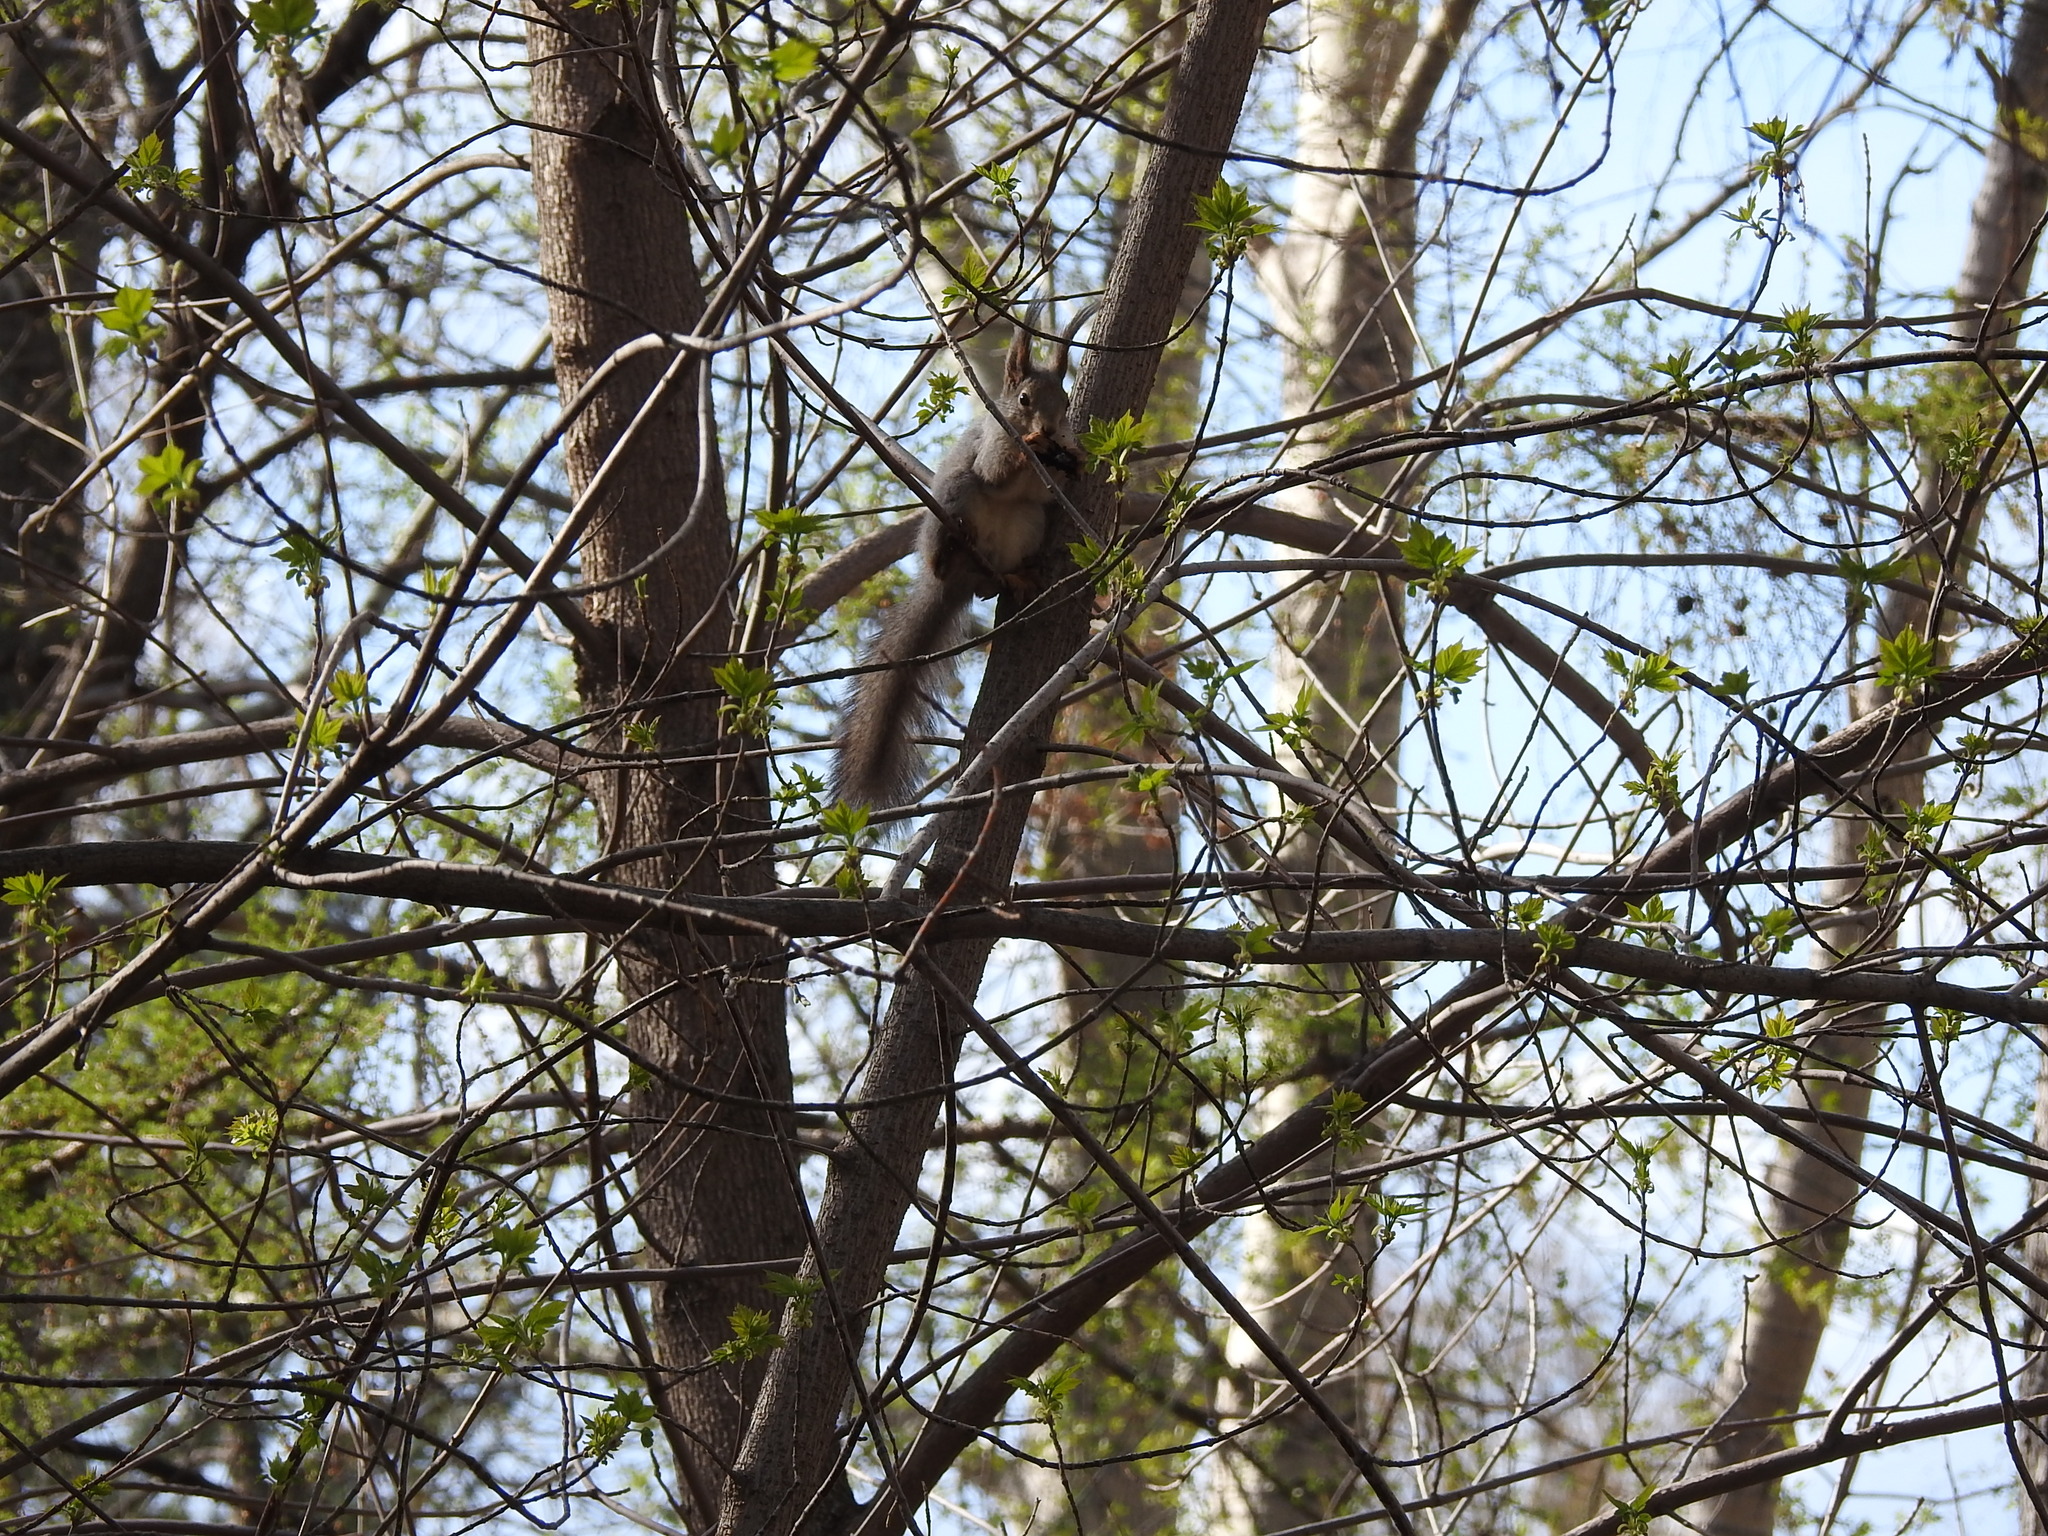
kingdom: Animalia
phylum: Chordata
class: Mammalia
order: Rodentia
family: Sciuridae
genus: Sciurus
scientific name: Sciurus vulgaris
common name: Eurasian red squirrel
